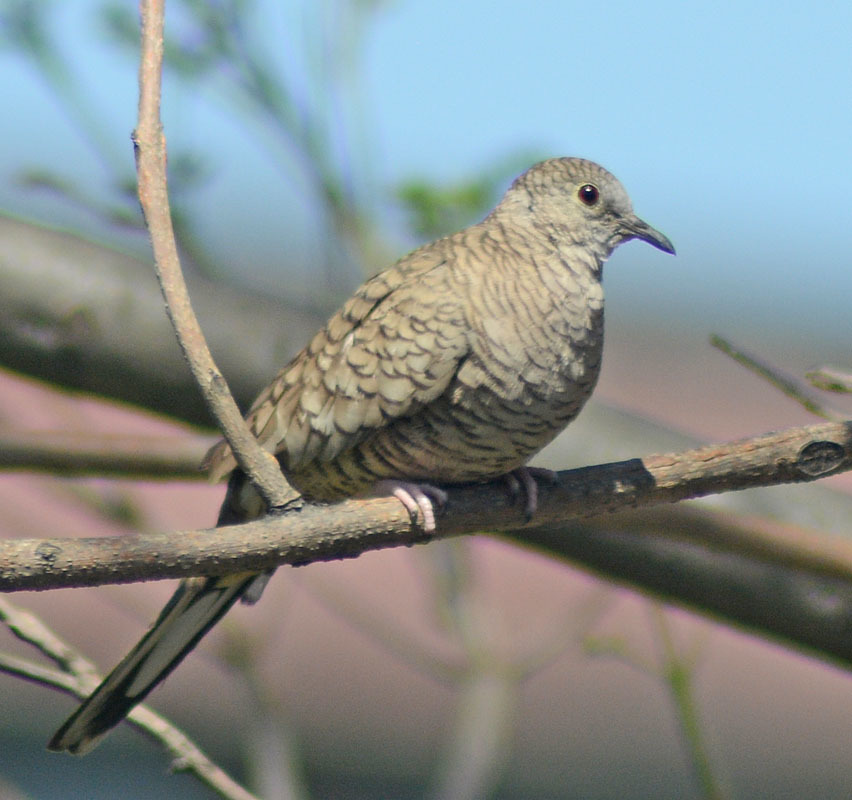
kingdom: Animalia
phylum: Chordata
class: Aves
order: Columbiformes
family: Columbidae
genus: Columbina
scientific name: Columbina inca
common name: Inca dove
